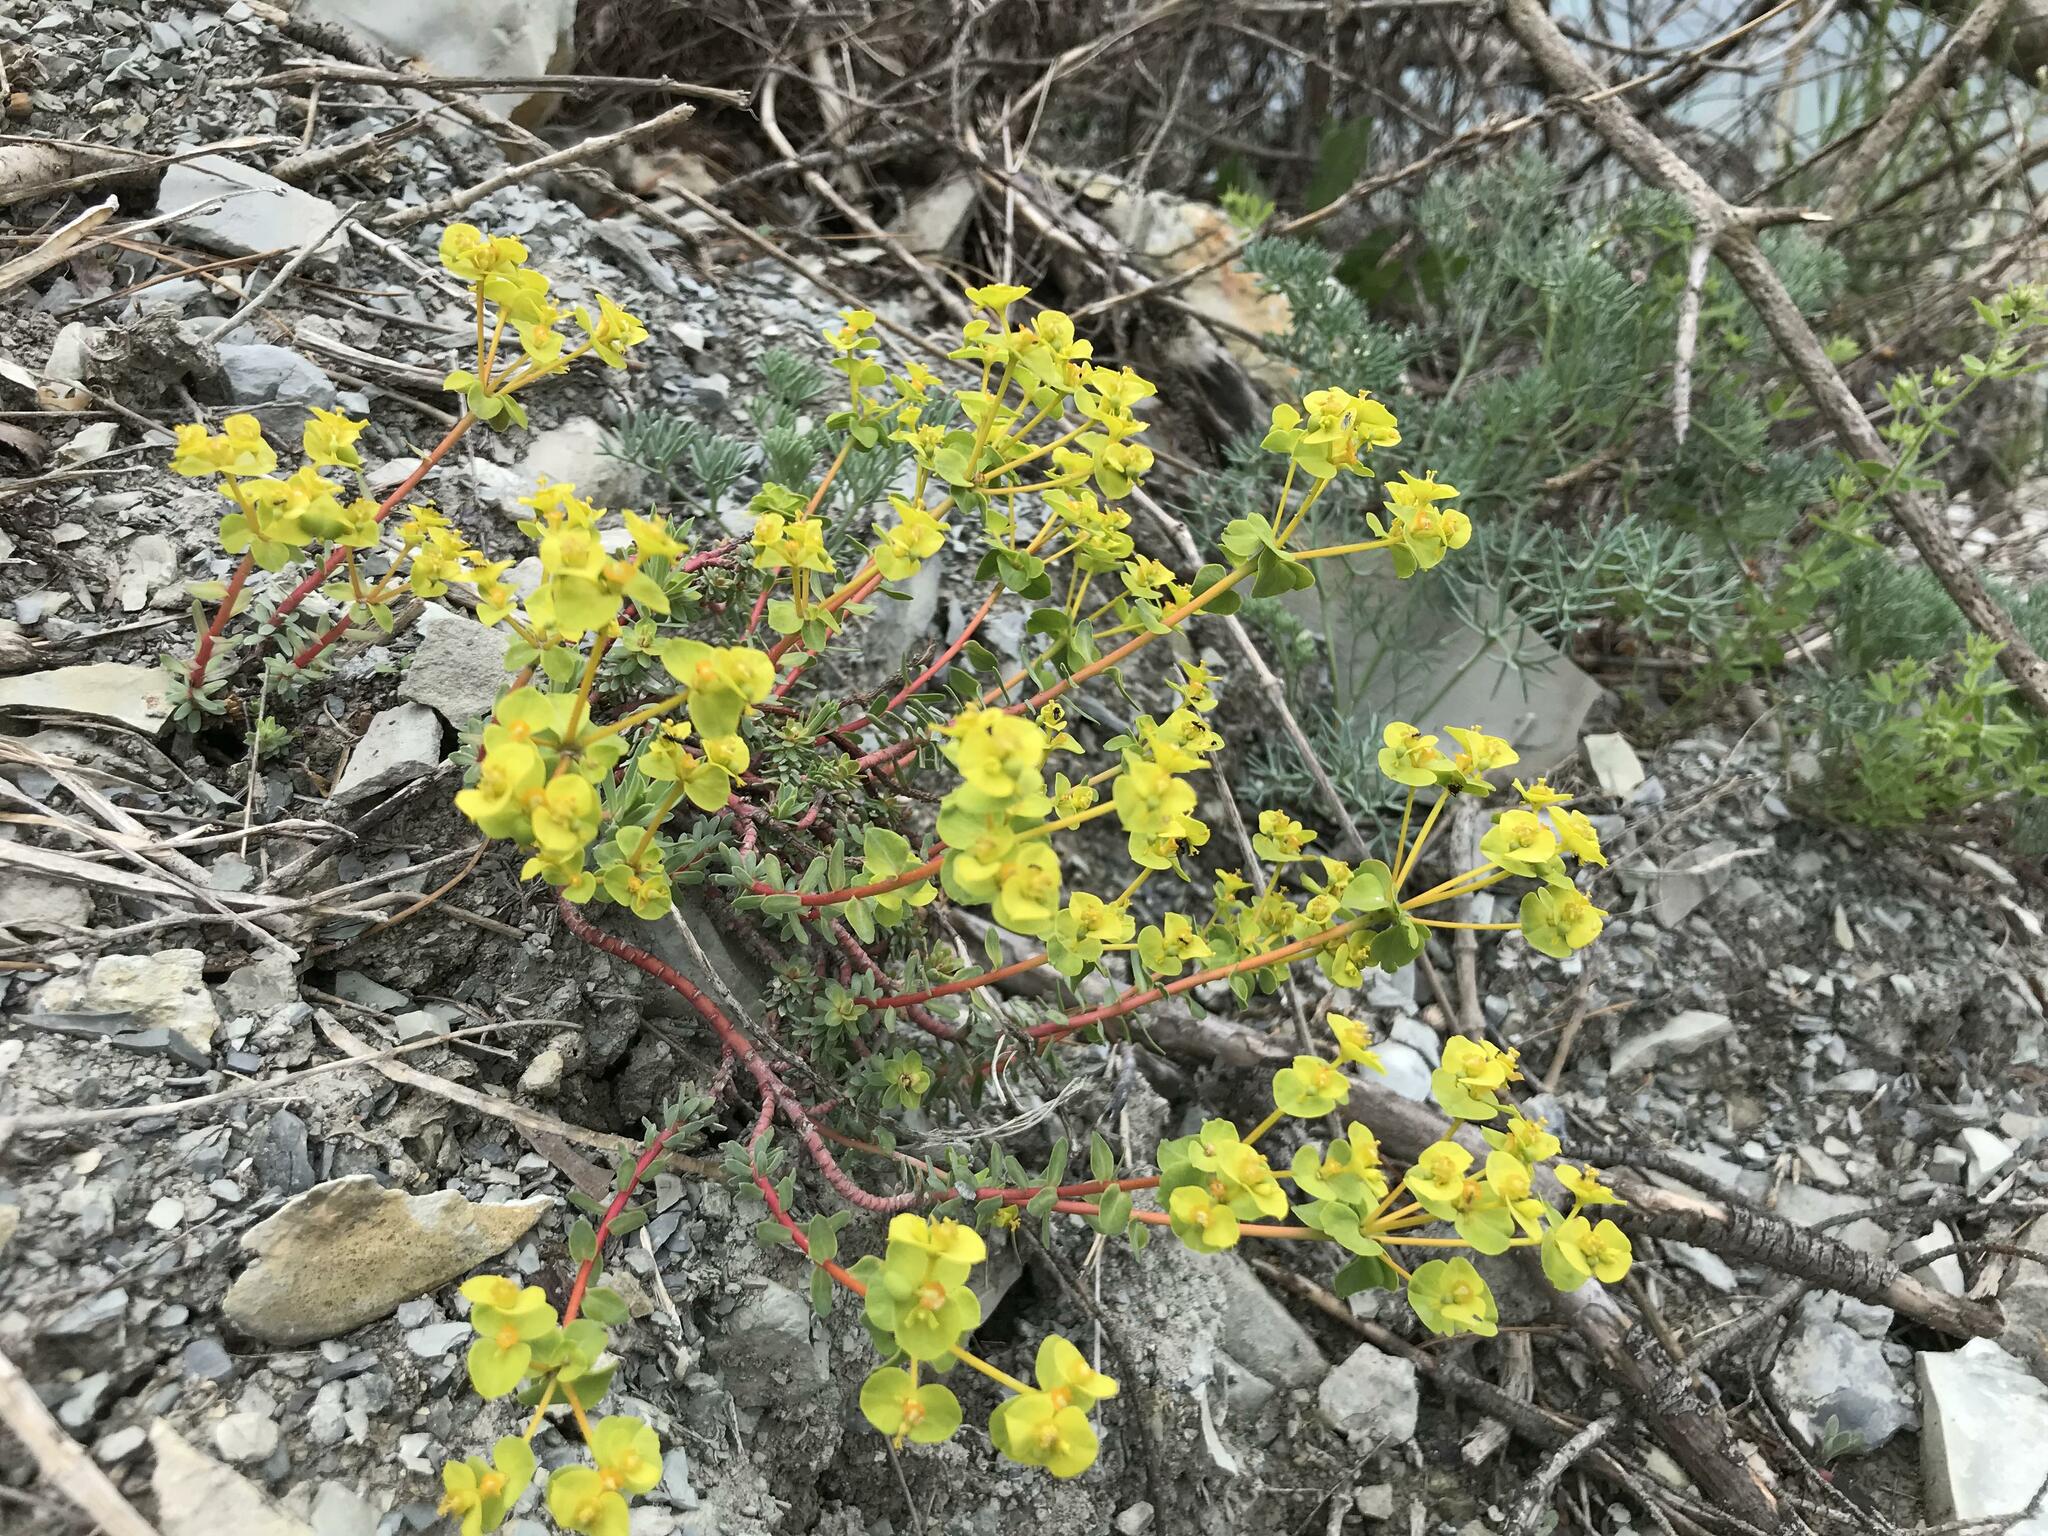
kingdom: Plantae
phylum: Tracheophyta
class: Magnoliopsida
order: Malpighiales
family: Euphorbiaceae
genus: Euphorbia
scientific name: Euphorbia petrophila
